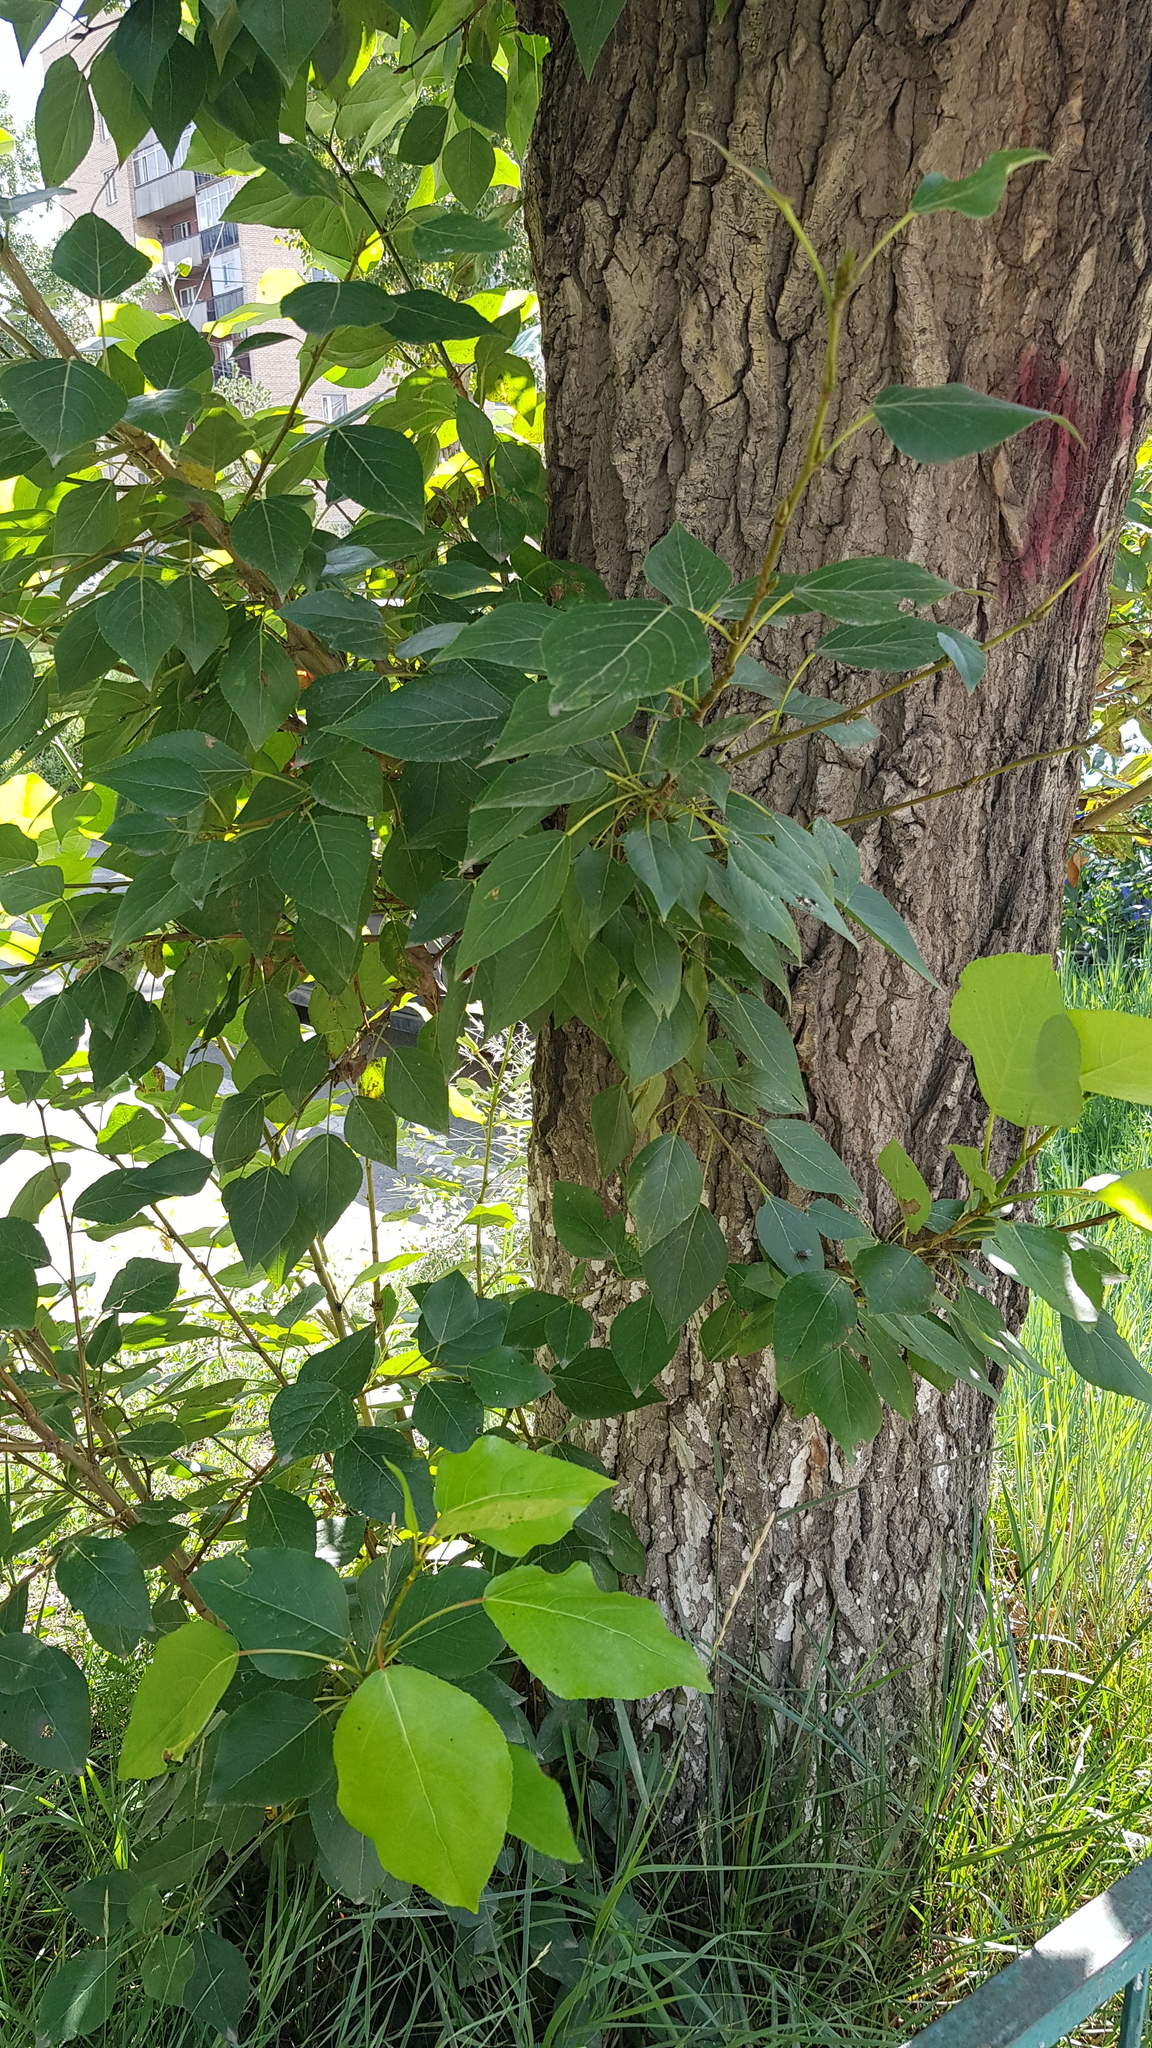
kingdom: Plantae
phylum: Tracheophyta
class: Magnoliopsida
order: Malpighiales
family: Salicaceae
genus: Populus
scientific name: Populus laurifolia
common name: Laurel-leaf poplar
